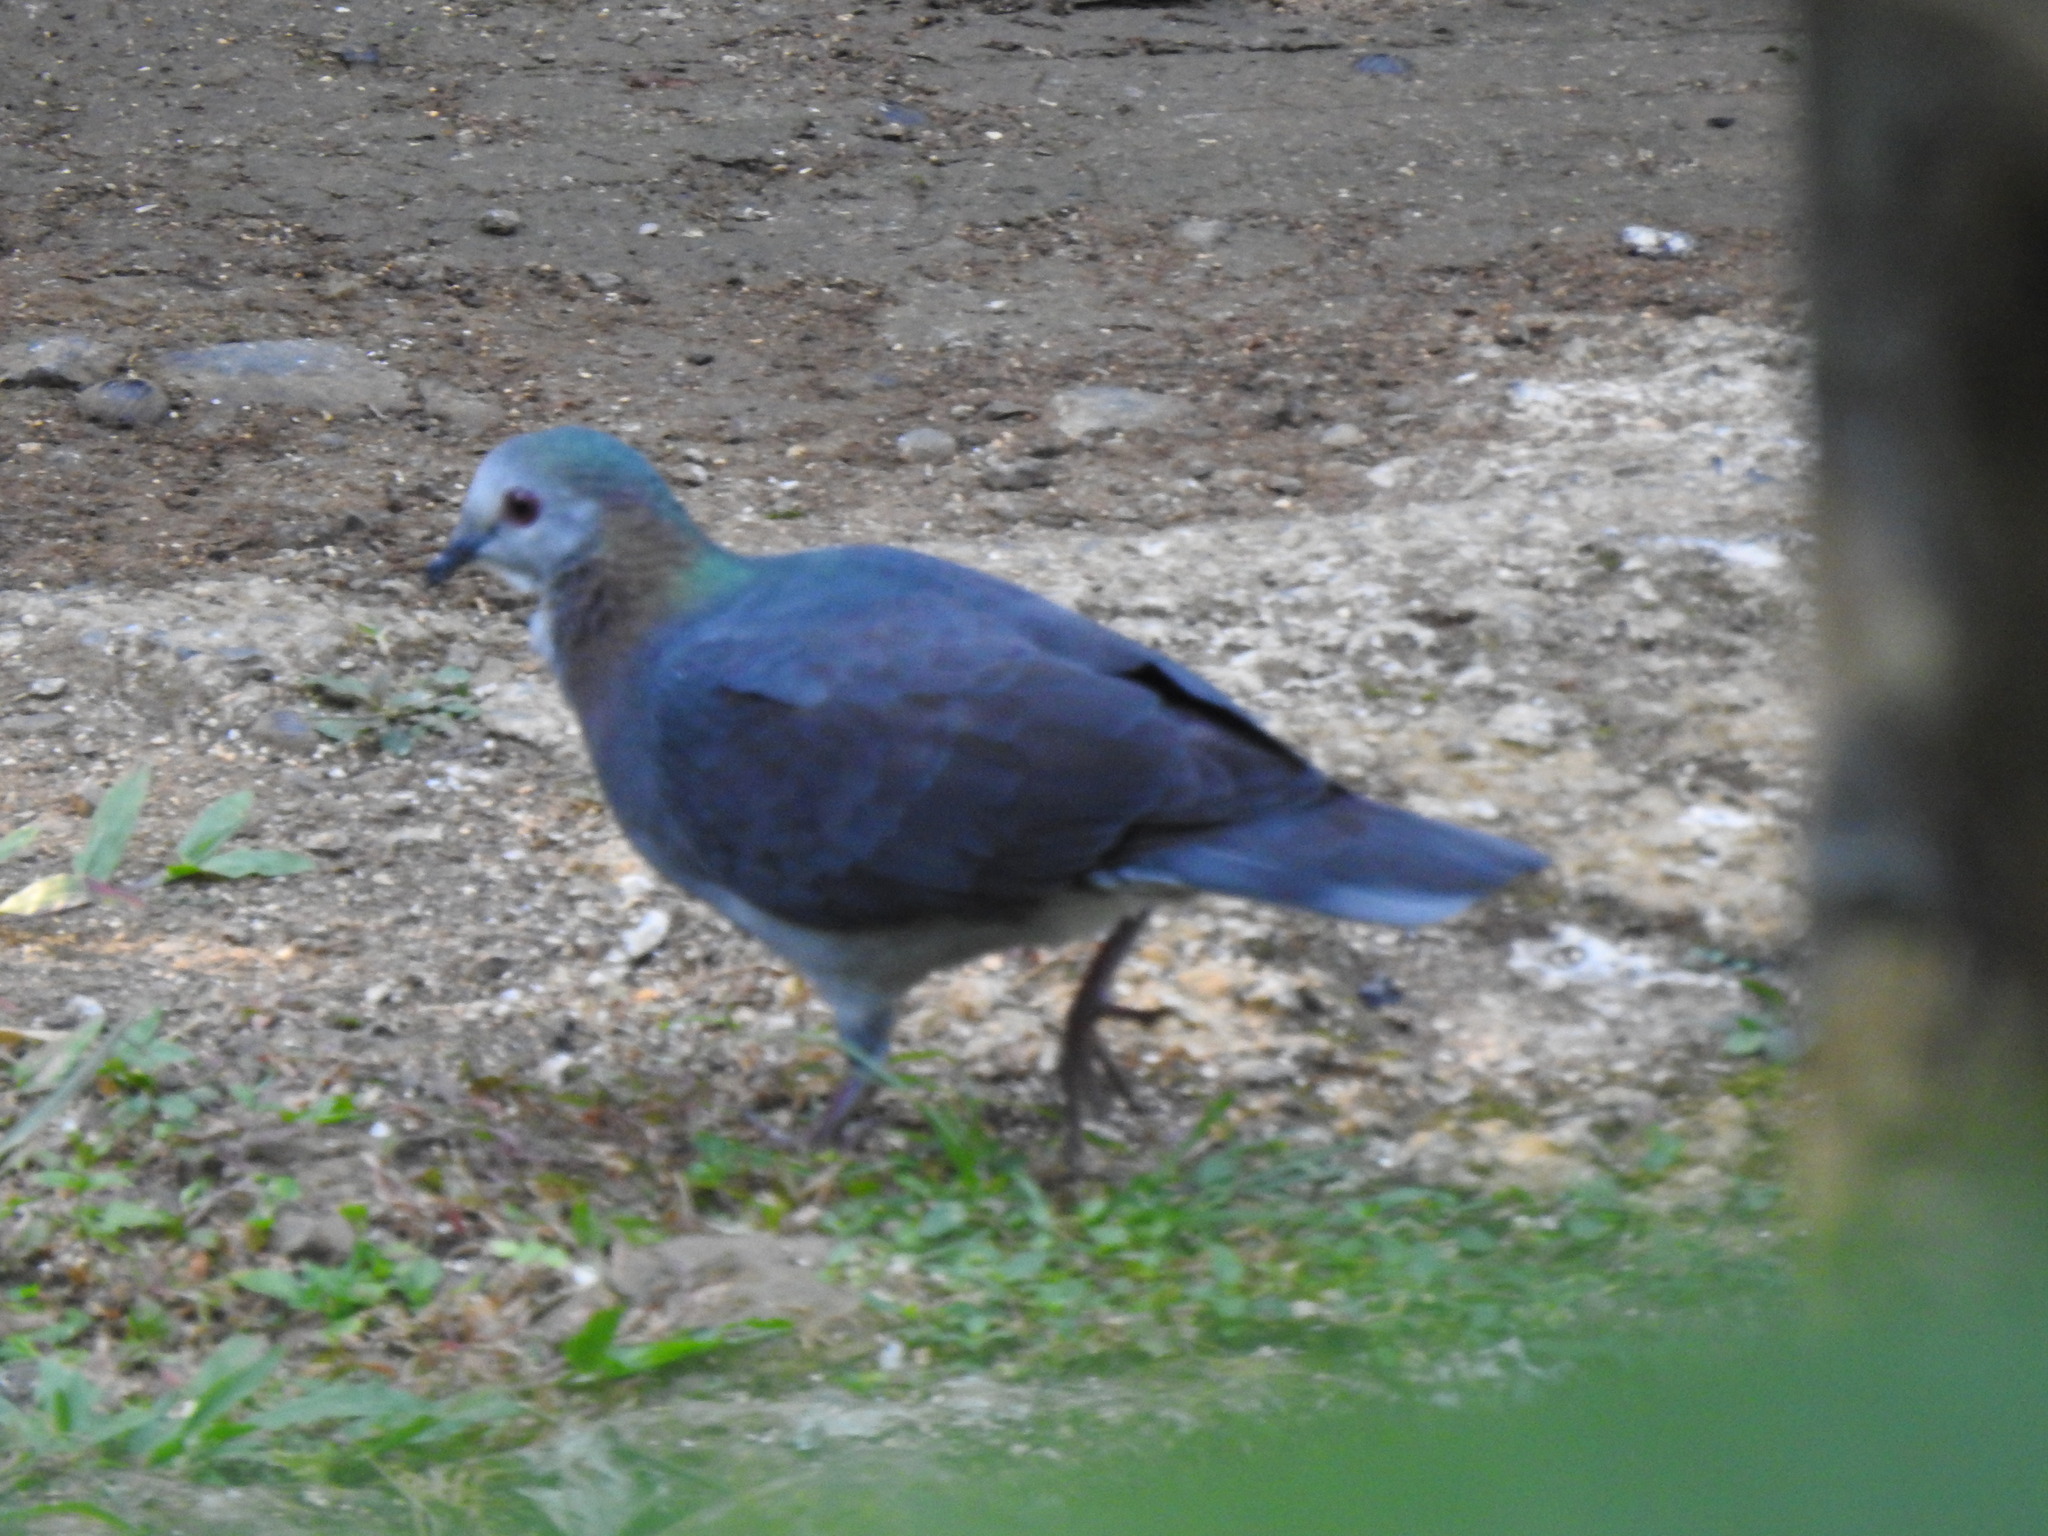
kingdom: Animalia
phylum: Chordata
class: Aves
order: Columbiformes
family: Columbidae
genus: Columba
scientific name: Columba larvata
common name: Lemon dove
